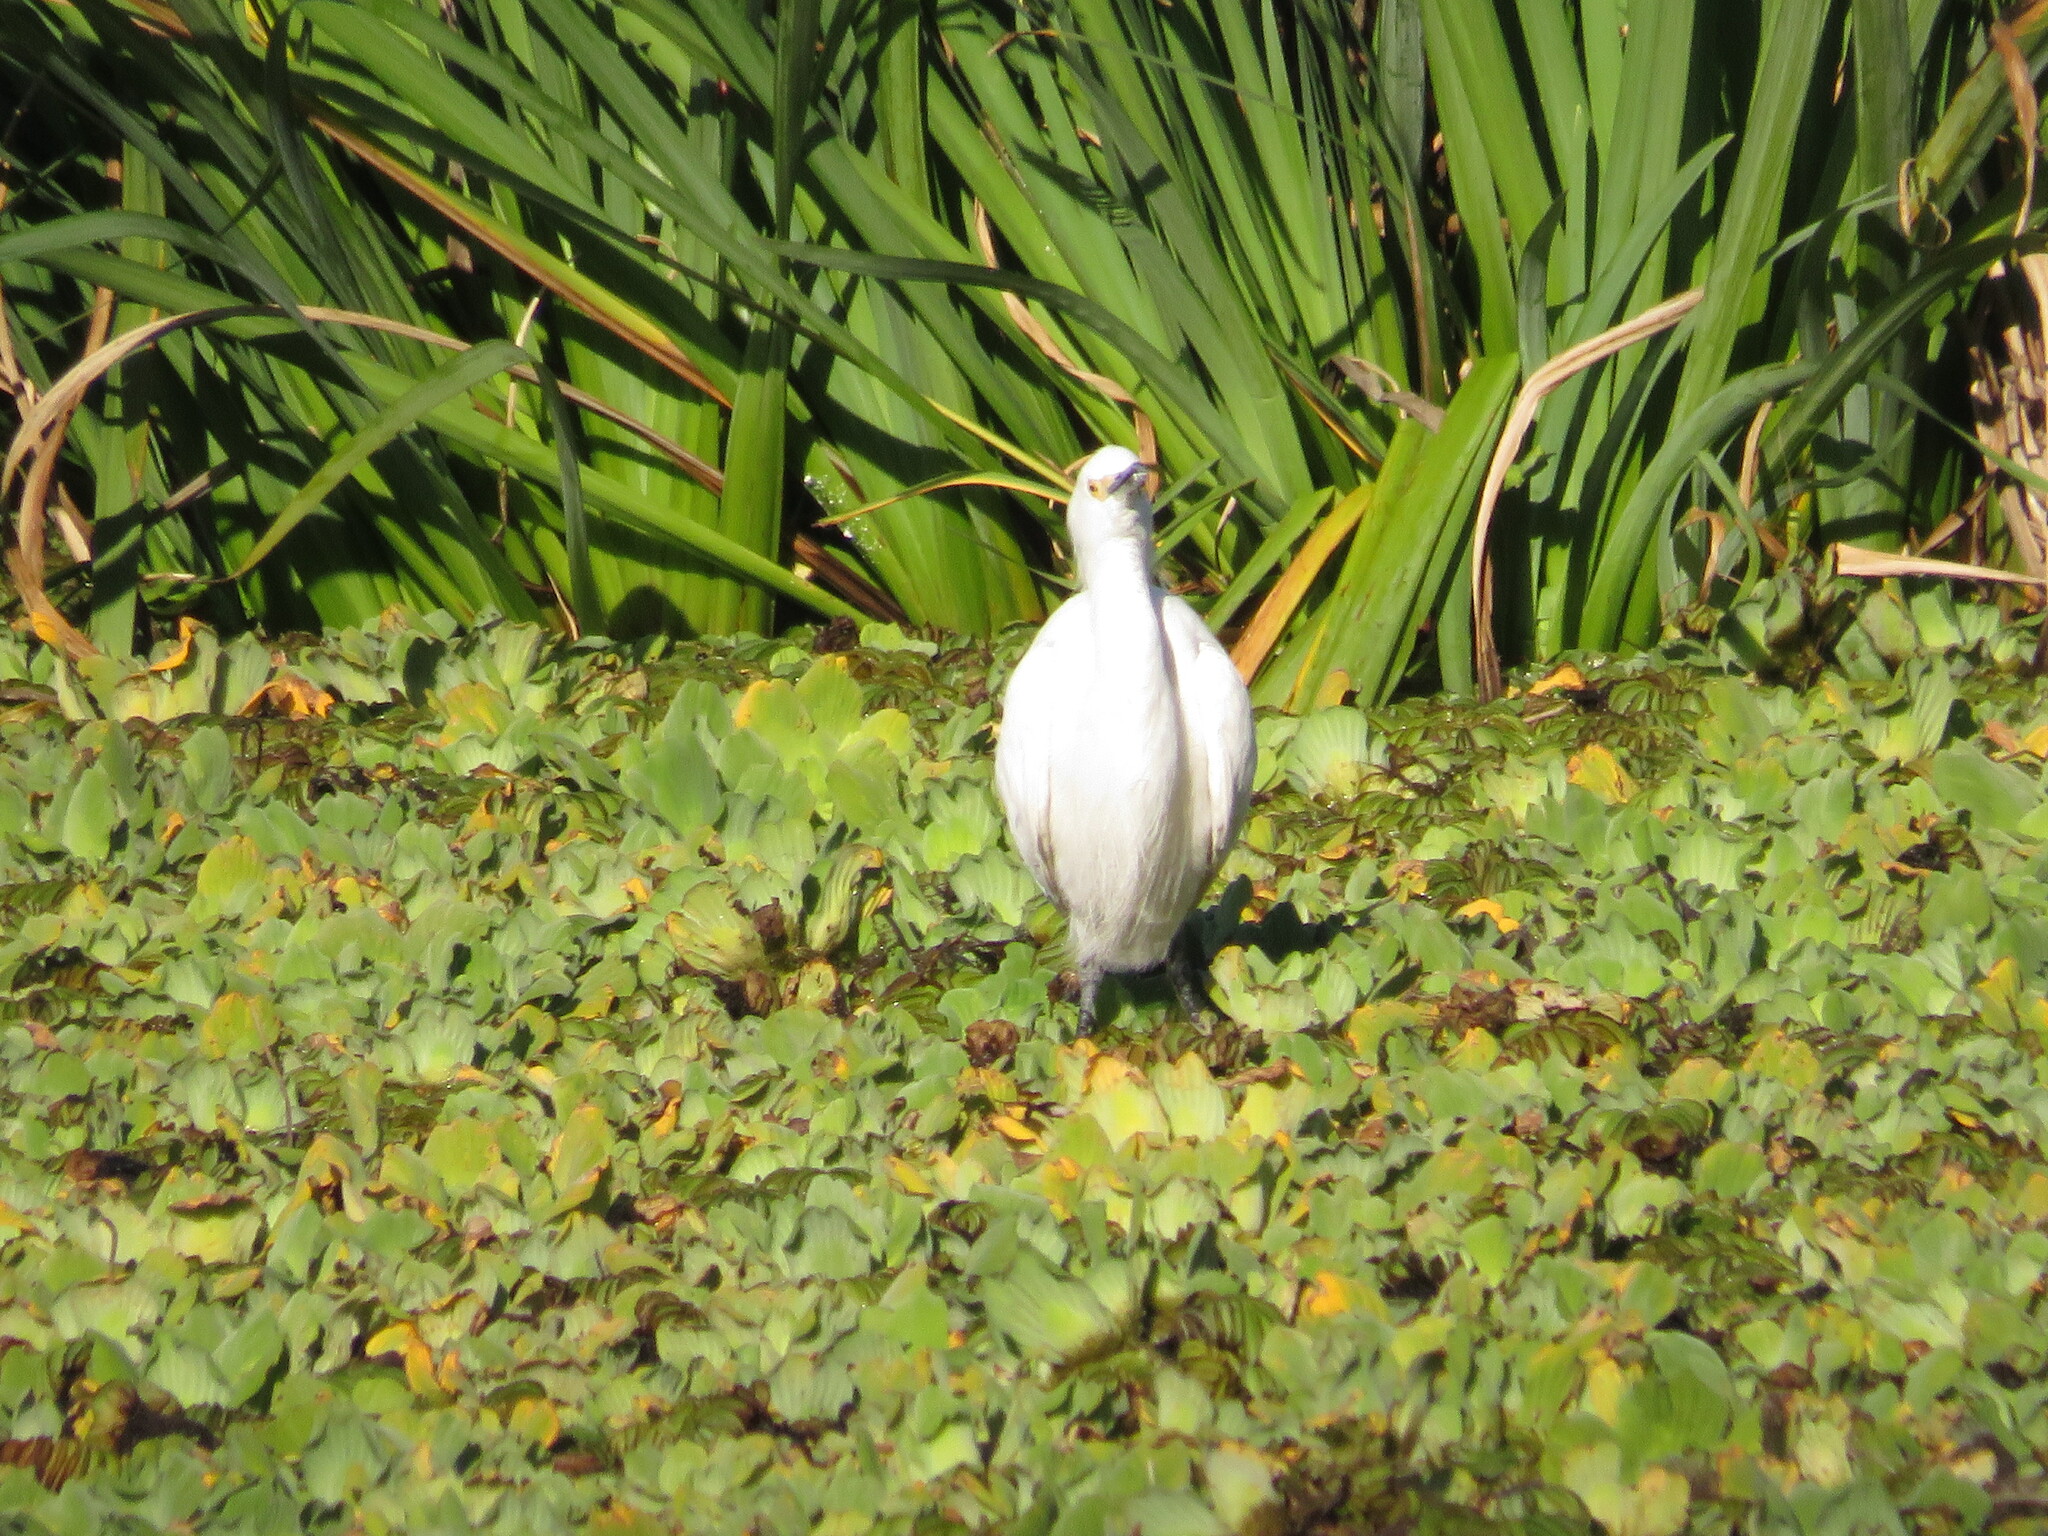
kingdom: Animalia
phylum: Chordata
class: Aves
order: Pelecaniformes
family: Ardeidae
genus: Egretta
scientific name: Egretta thula
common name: Snowy egret
